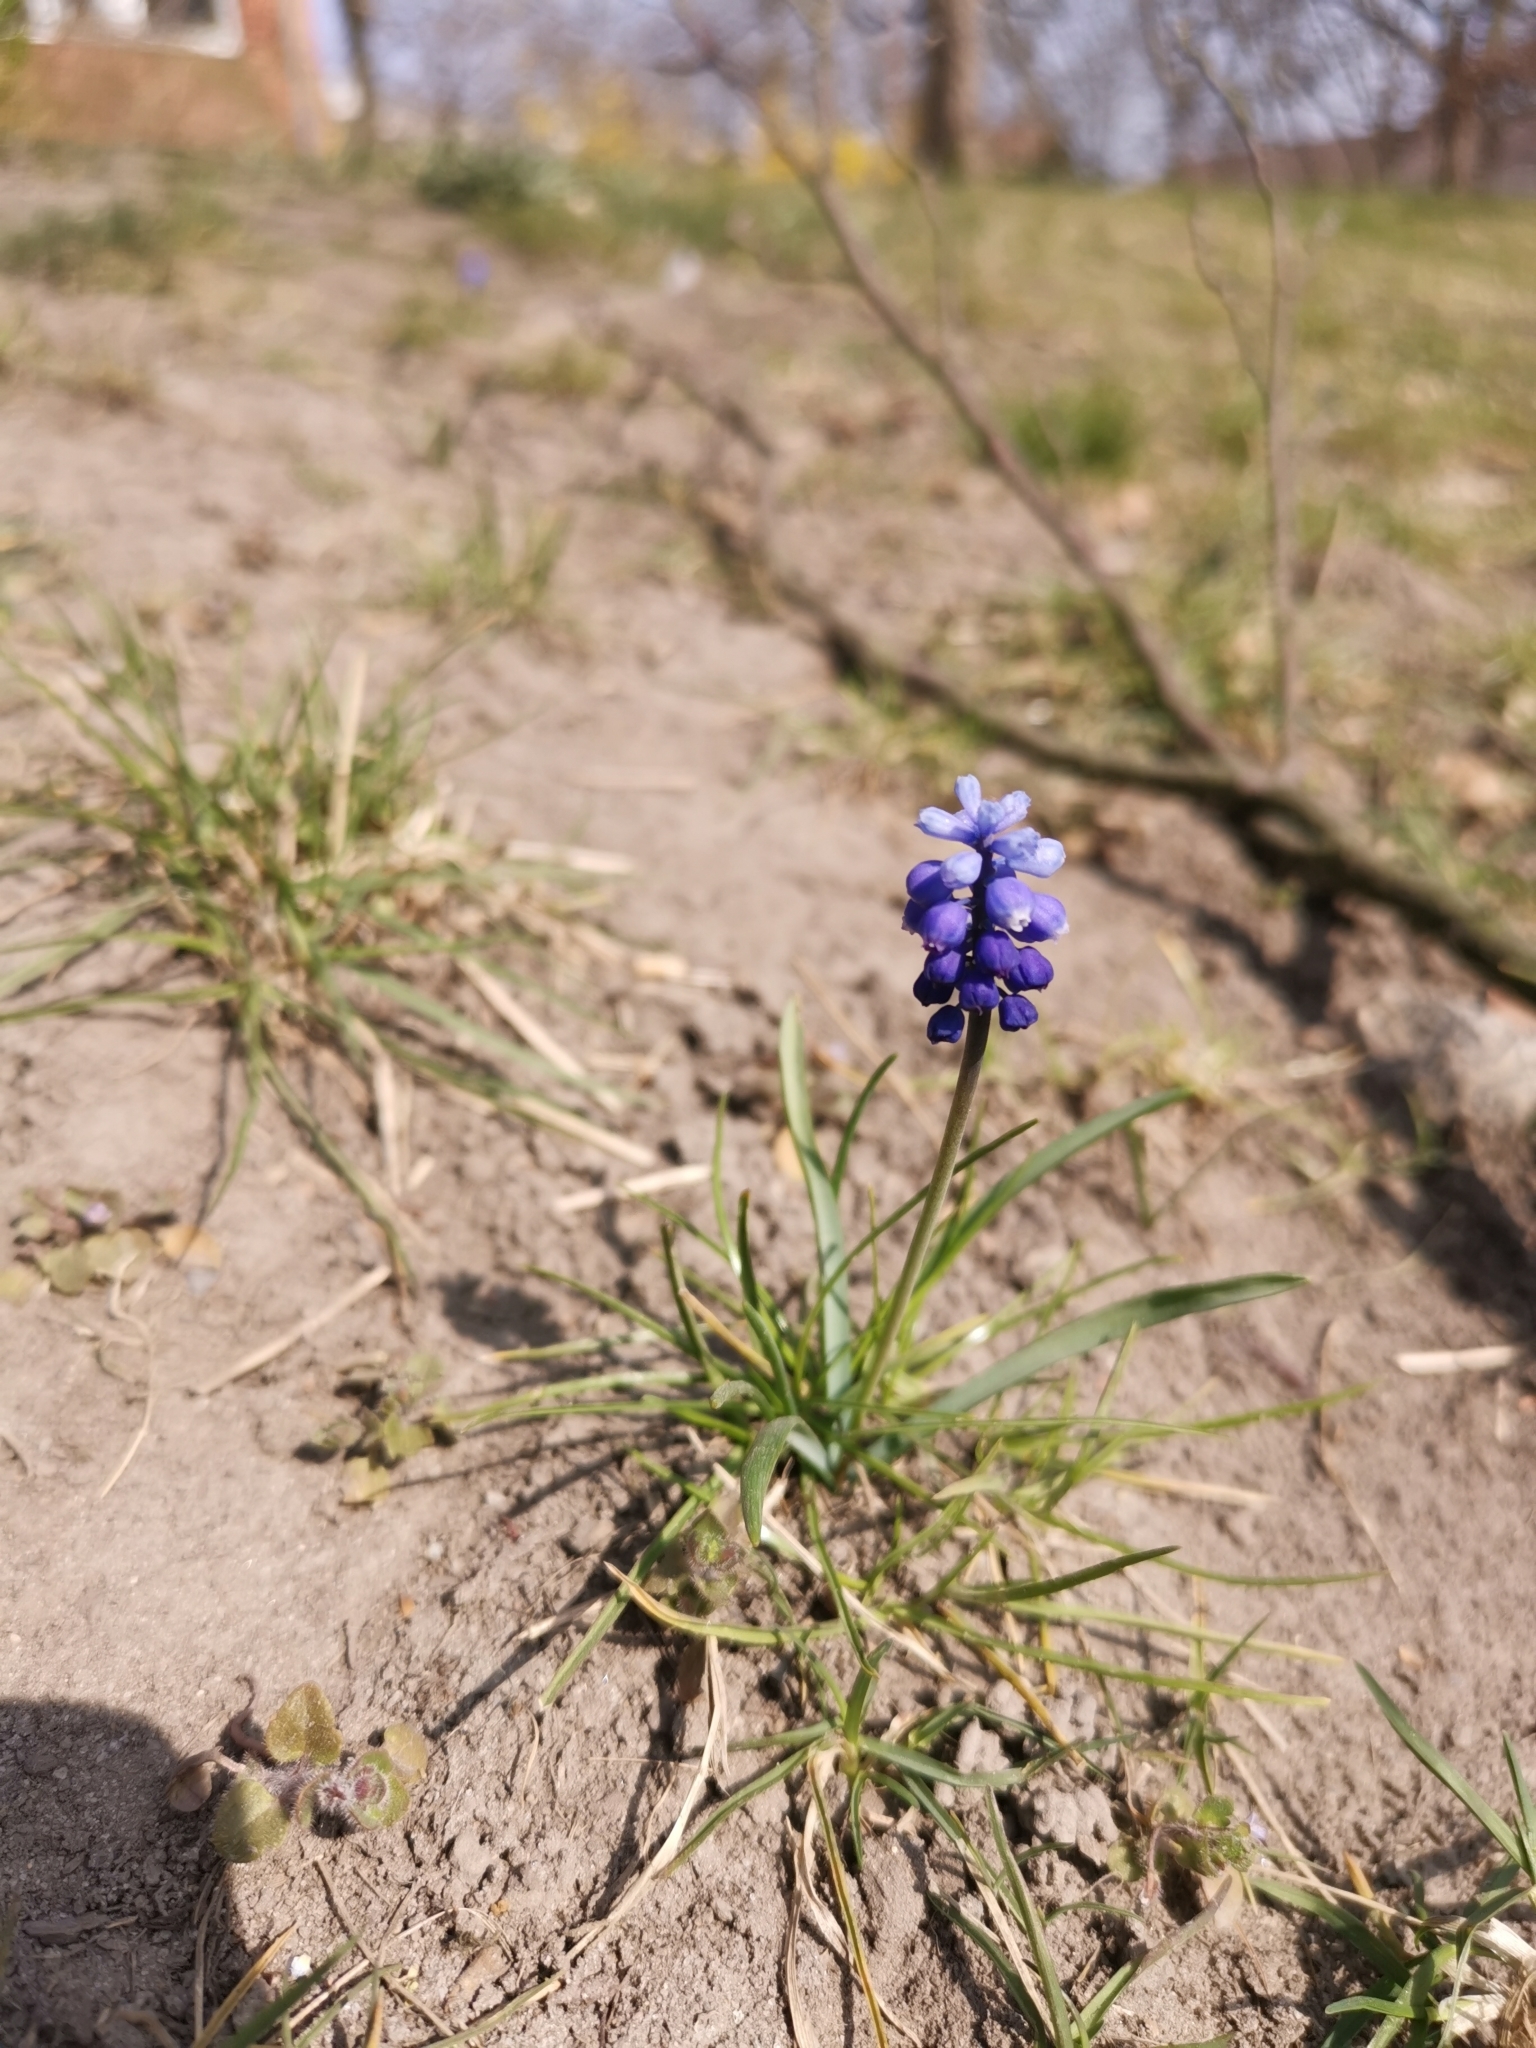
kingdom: Plantae
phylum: Tracheophyta
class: Liliopsida
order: Asparagales
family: Asparagaceae
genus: Muscari
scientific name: Muscari botryoides
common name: Compact grape-hyacinth
